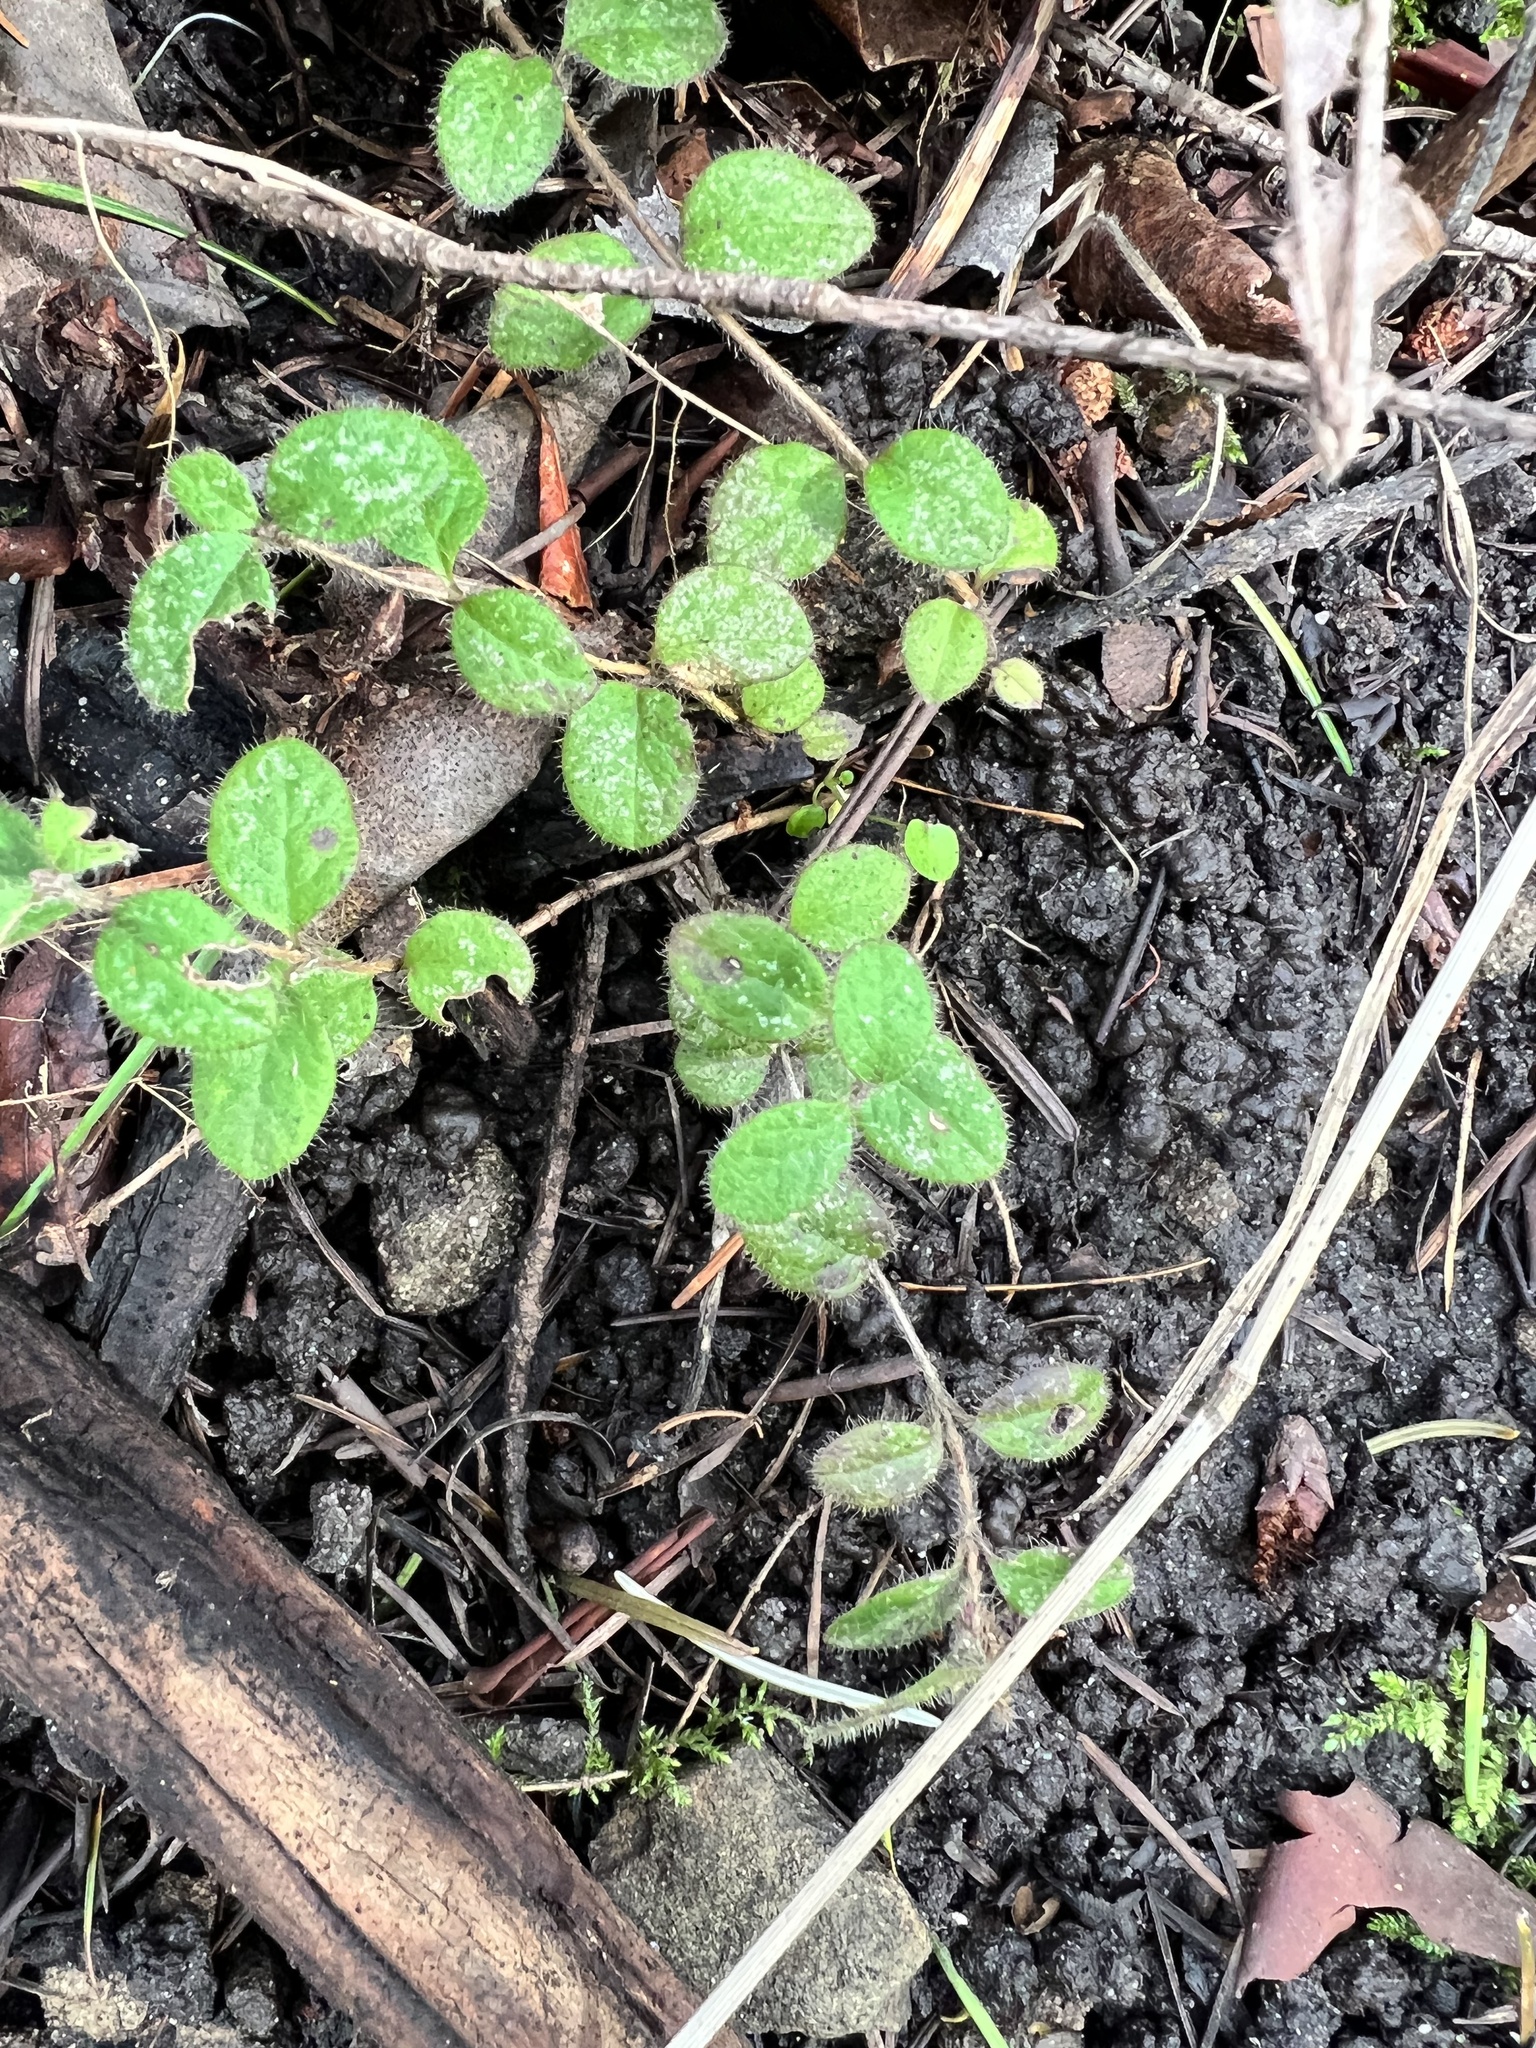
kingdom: Plantae
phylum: Tracheophyta
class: Magnoliopsida
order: Dipsacales
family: Caprifoliaceae
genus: Lonicera
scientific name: Lonicera hispidula
